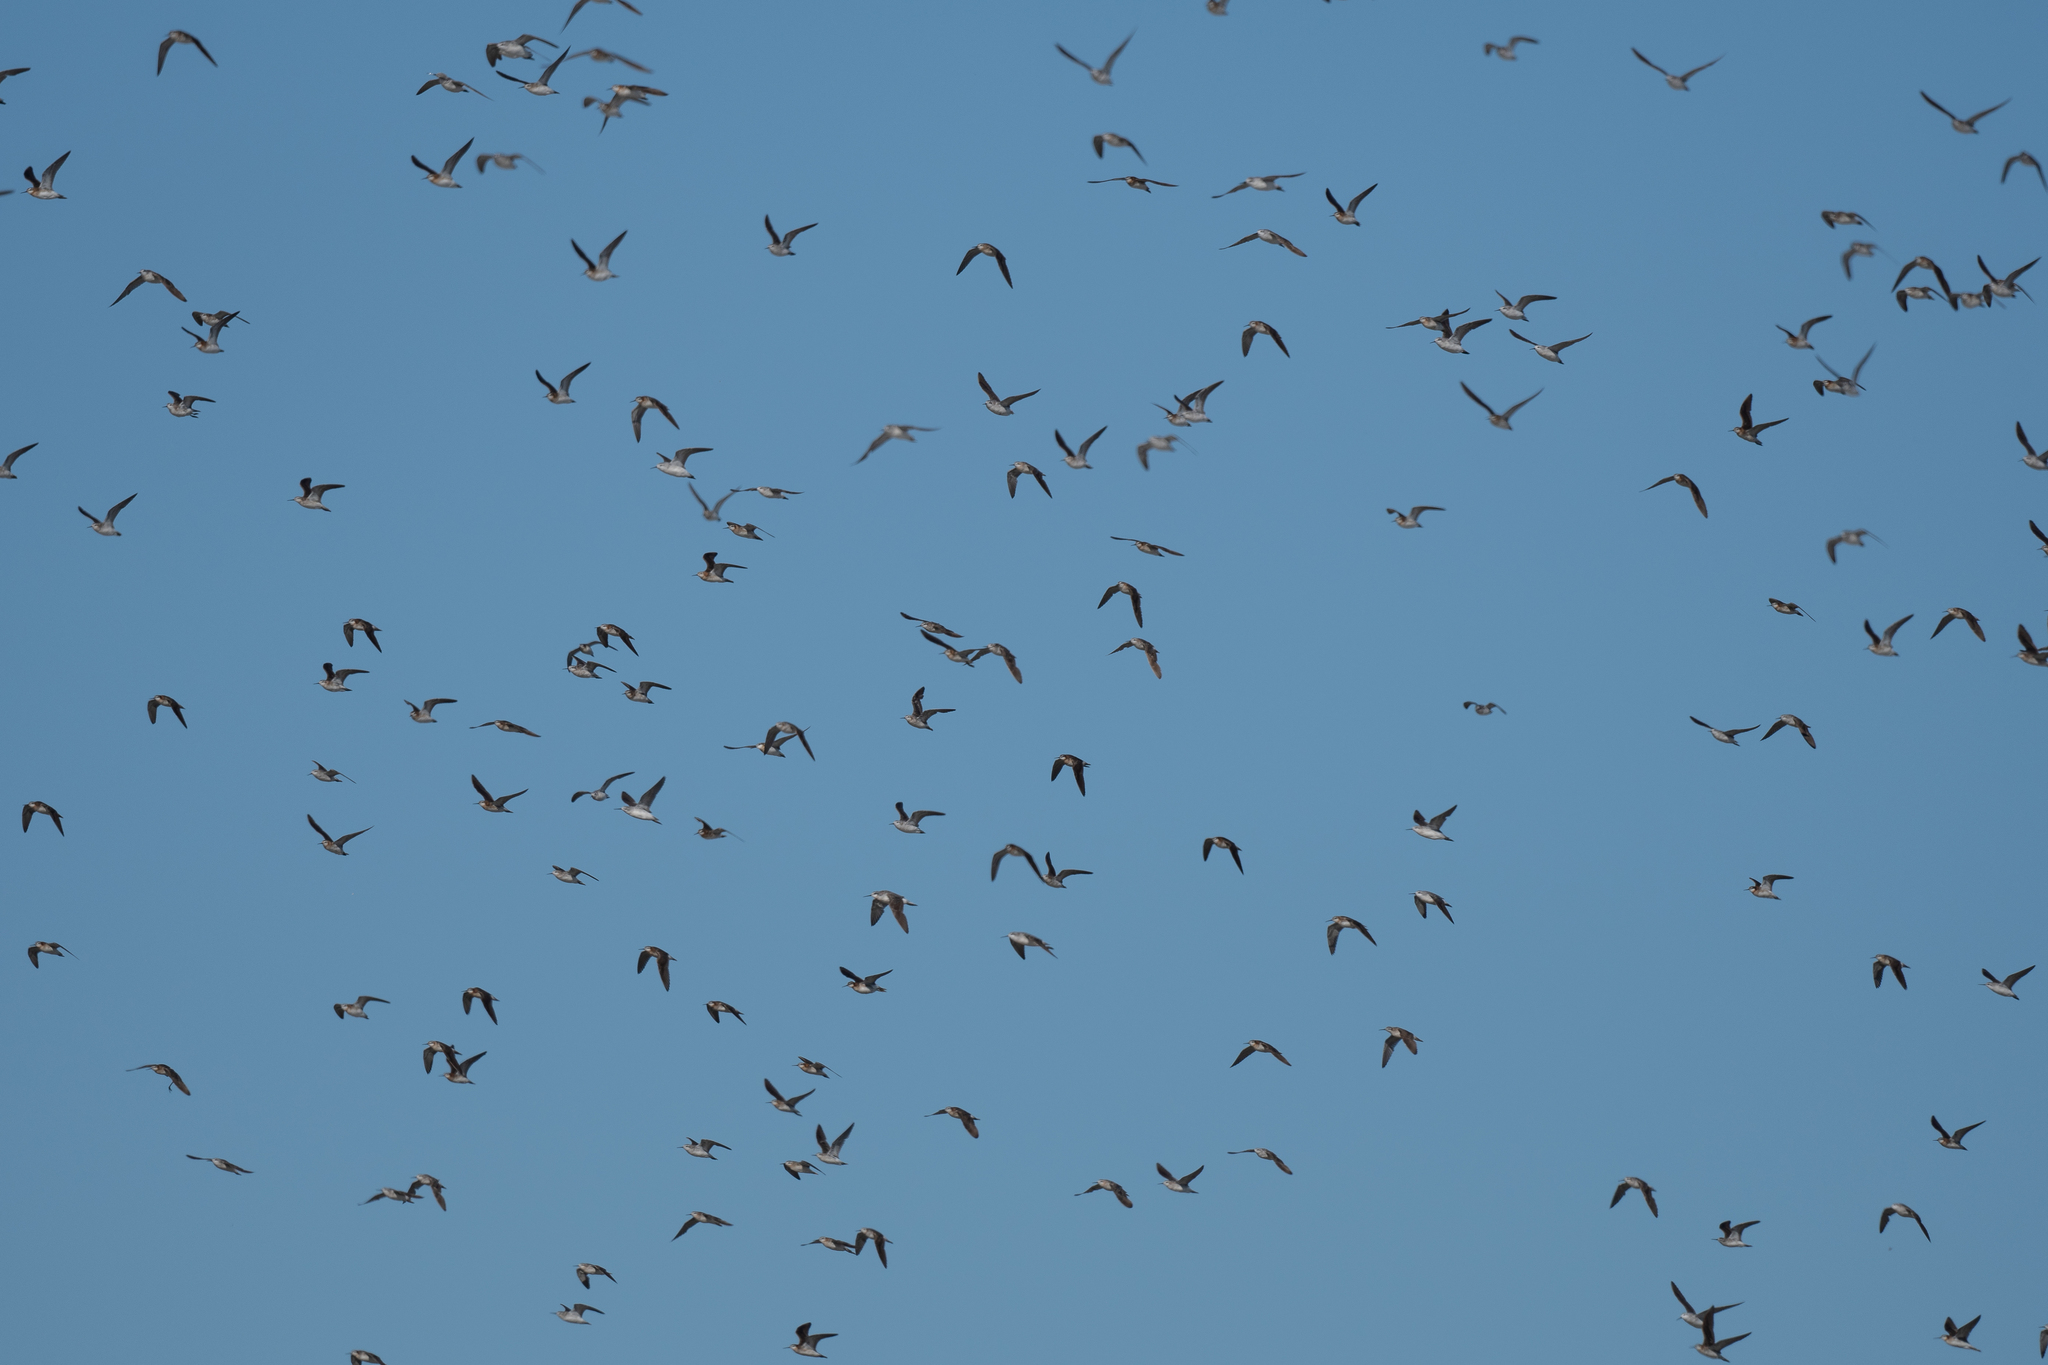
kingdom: Animalia
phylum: Chordata
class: Aves
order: Charadriiformes
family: Scolopacidae
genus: Phalaropus
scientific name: Phalaropus tricolor
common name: Wilson's phalarope
